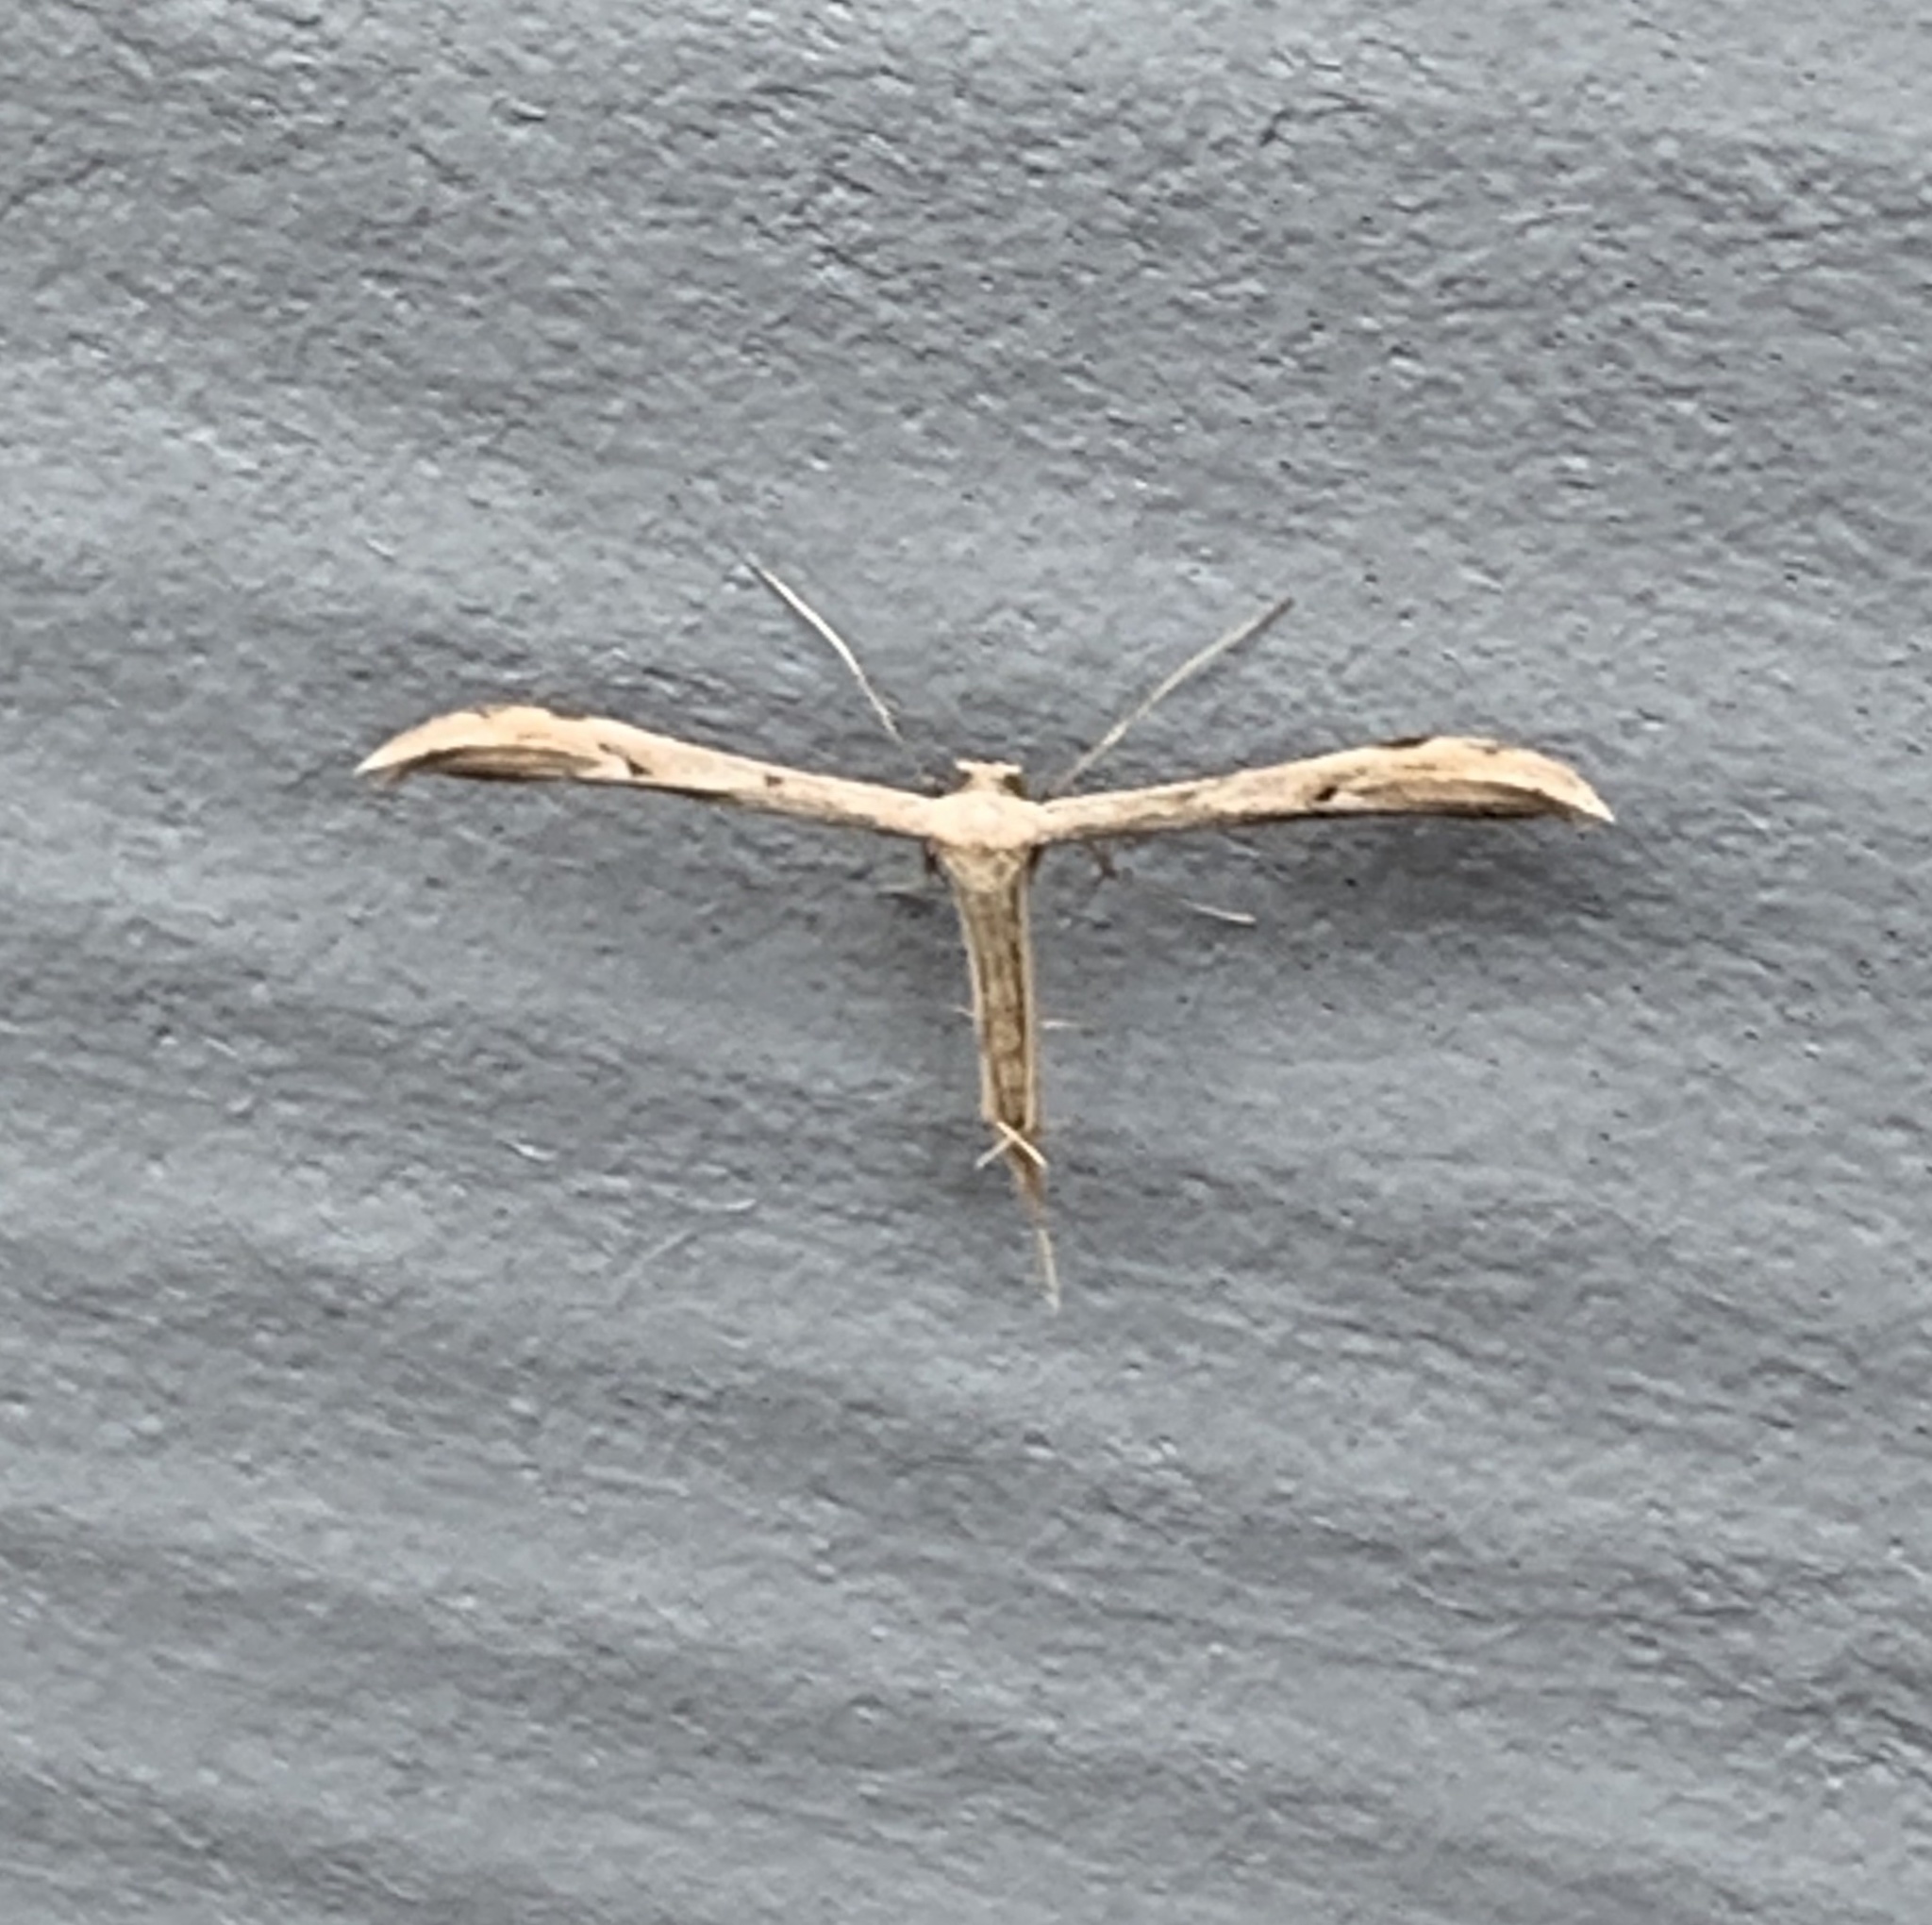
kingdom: Animalia
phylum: Arthropoda
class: Insecta
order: Lepidoptera
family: Pterophoridae
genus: Pselnophorus
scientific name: Pselnophorus belfragei
